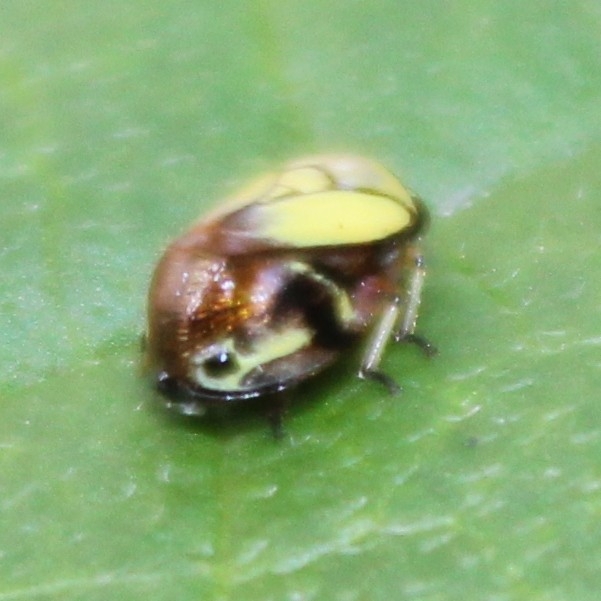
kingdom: Animalia
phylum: Arthropoda
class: Insecta
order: Hemiptera
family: Clastopteridae
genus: Clastoptera
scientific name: Clastoptera proteus
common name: Dogwood spittlebug
